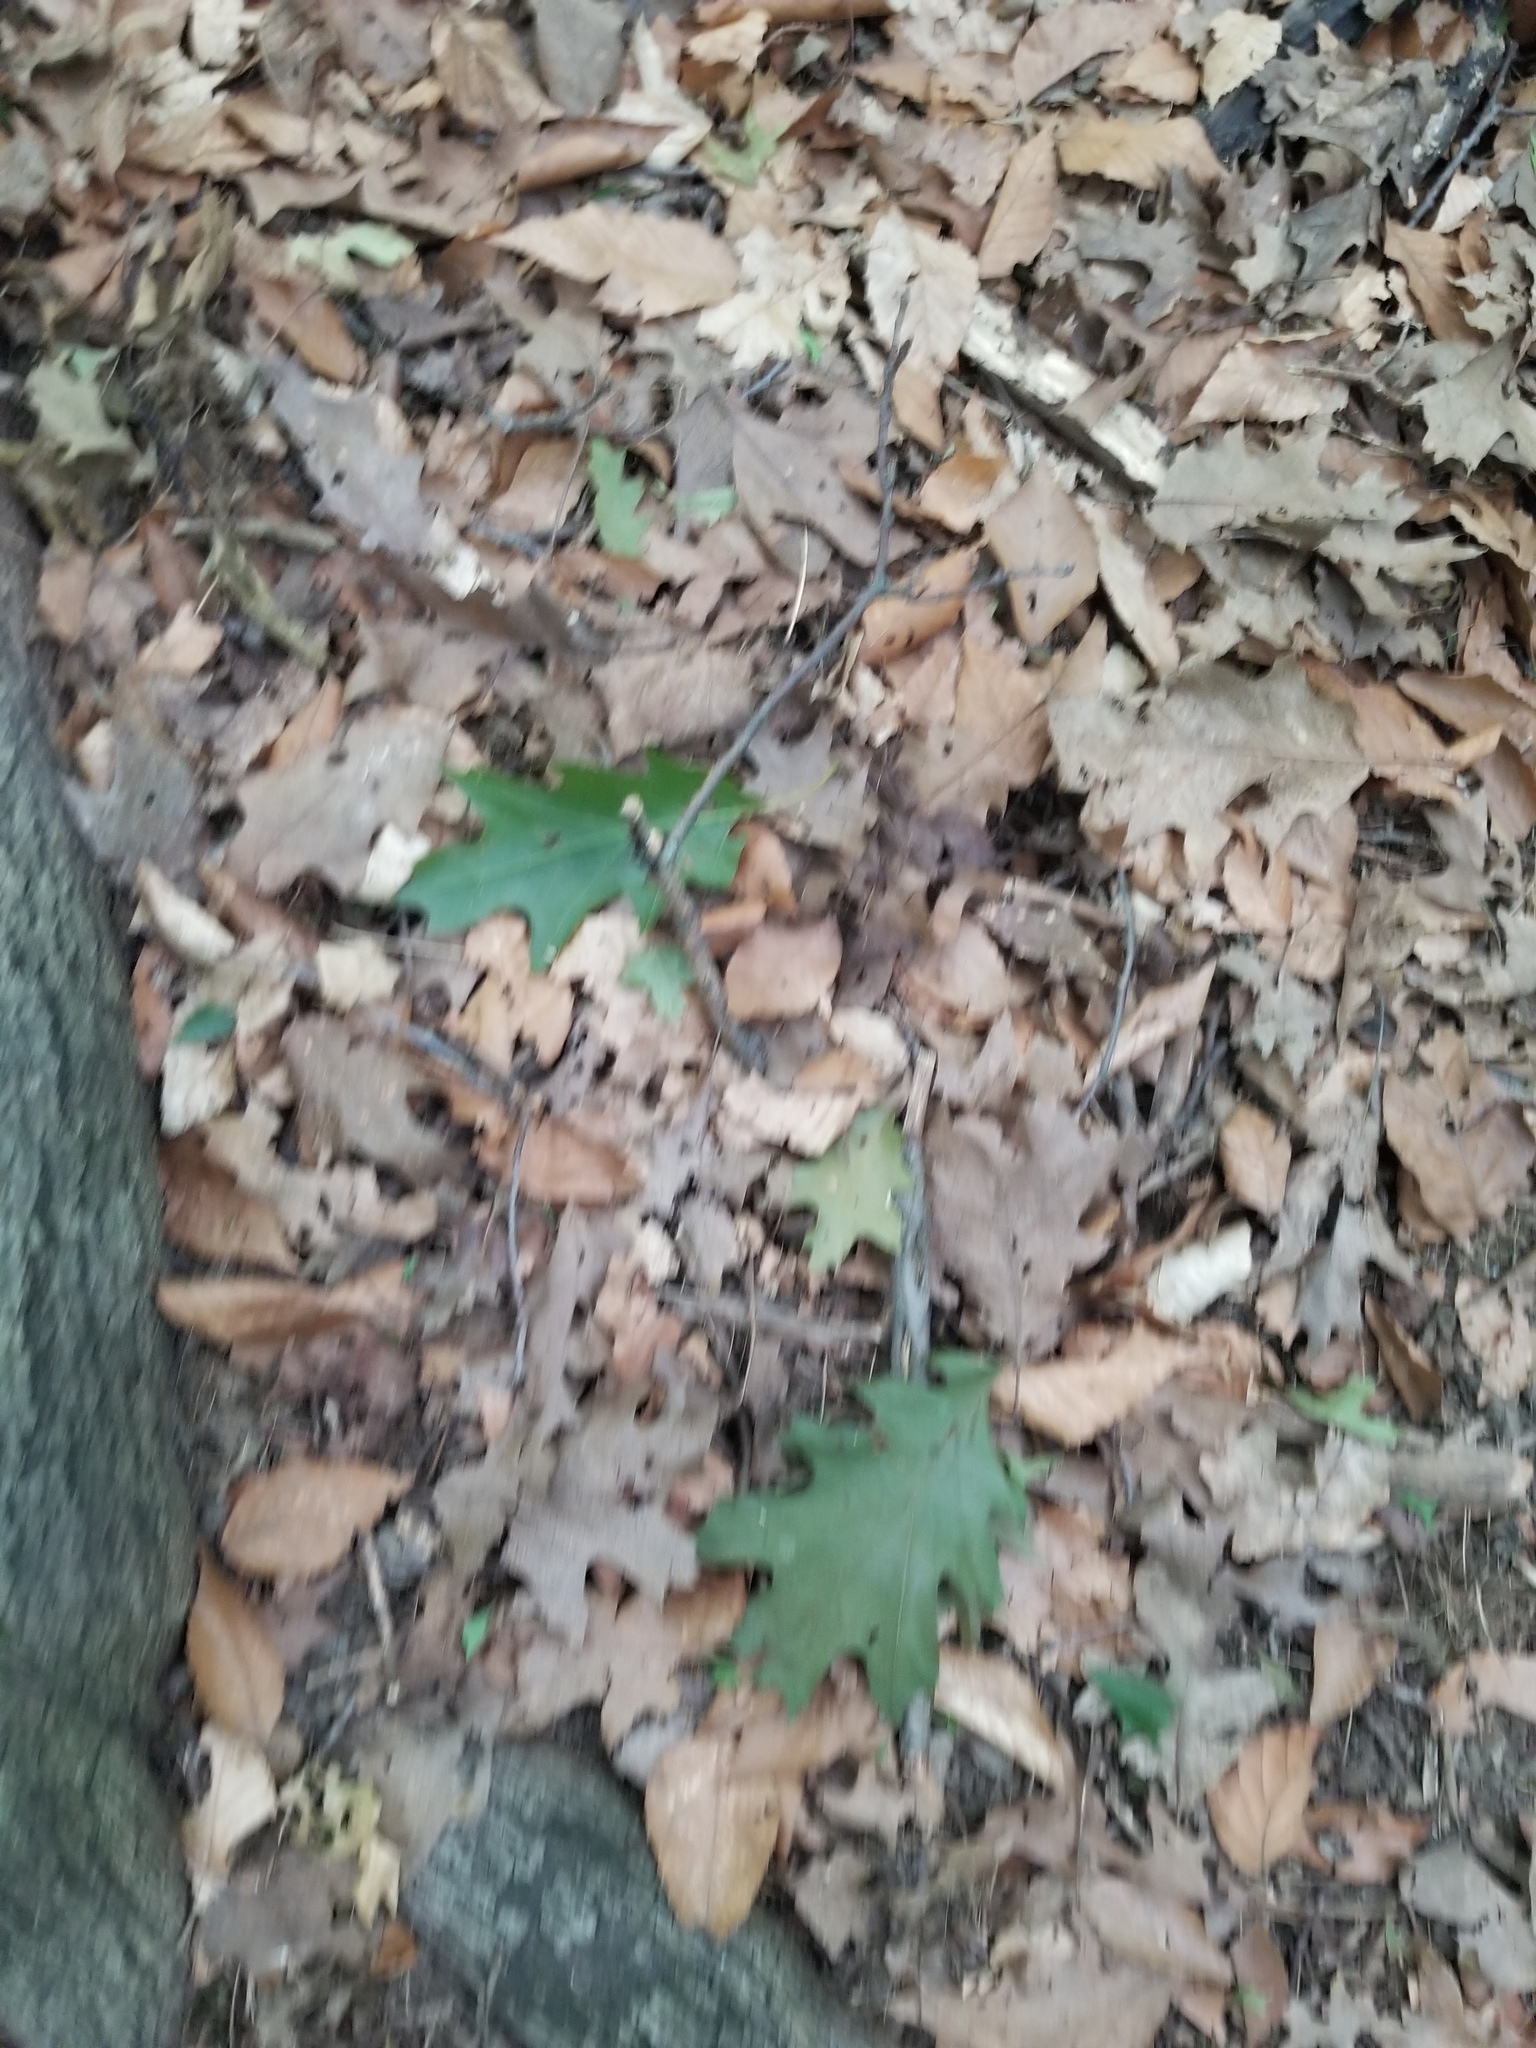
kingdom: Plantae
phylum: Tracheophyta
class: Magnoliopsida
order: Fagales
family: Fagaceae
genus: Quercus
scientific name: Quercus rubra
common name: Red oak
